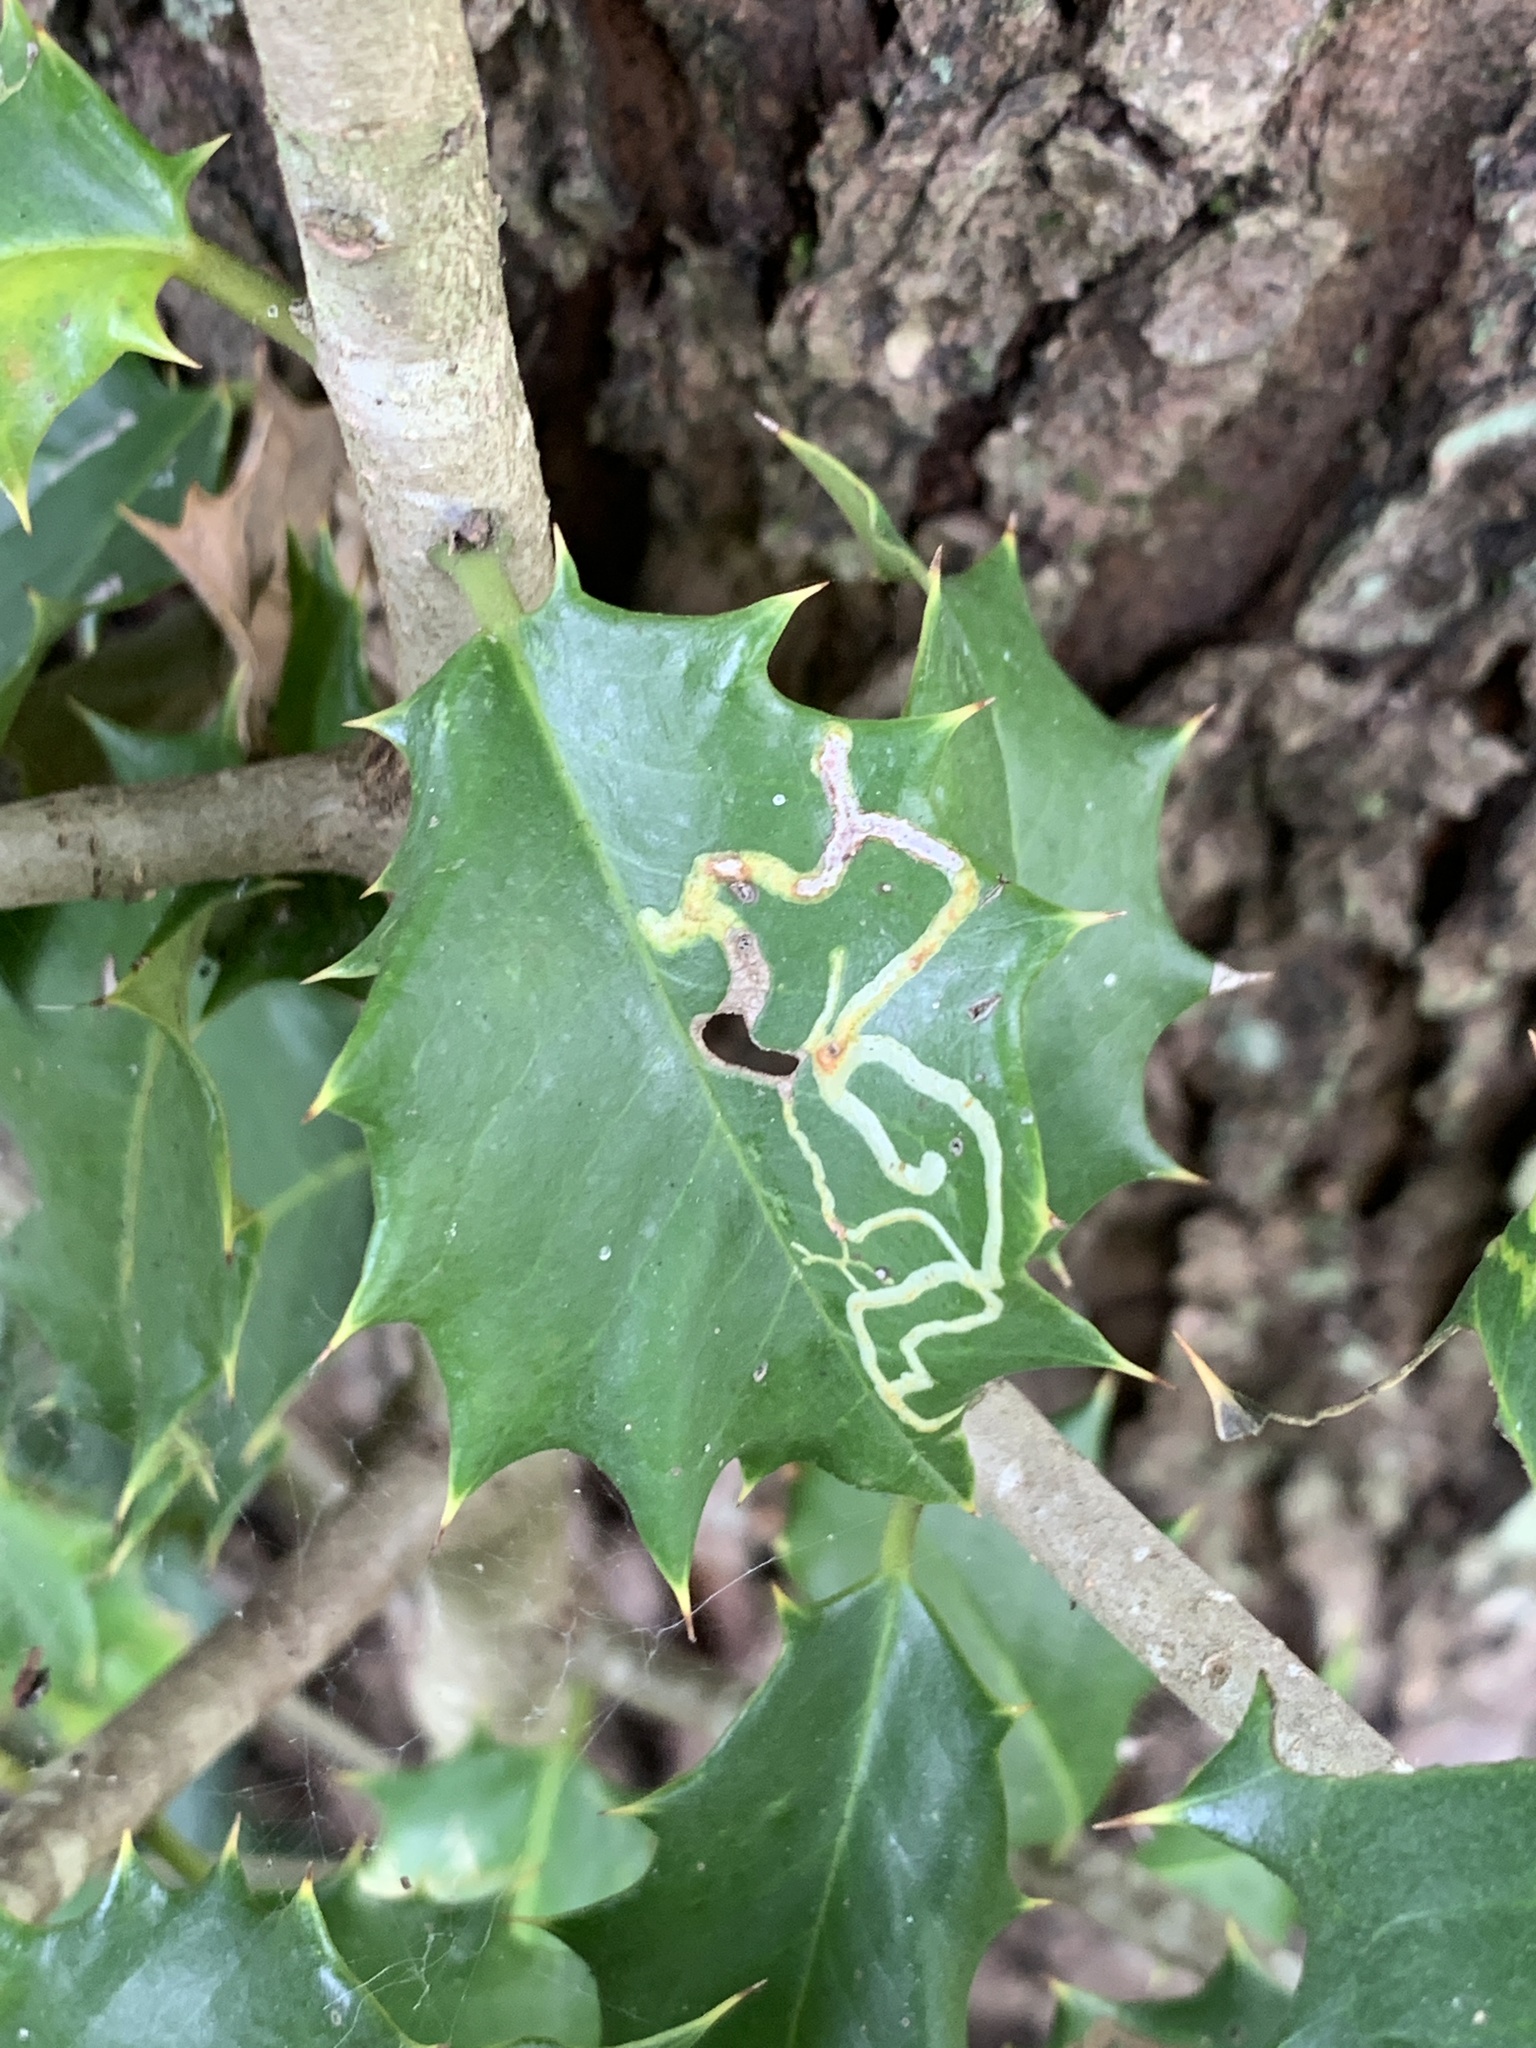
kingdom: Animalia
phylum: Arthropoda
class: Insecta
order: Diptera
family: Agromyzidae
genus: Phytomyza
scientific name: Phytomyza opacae
